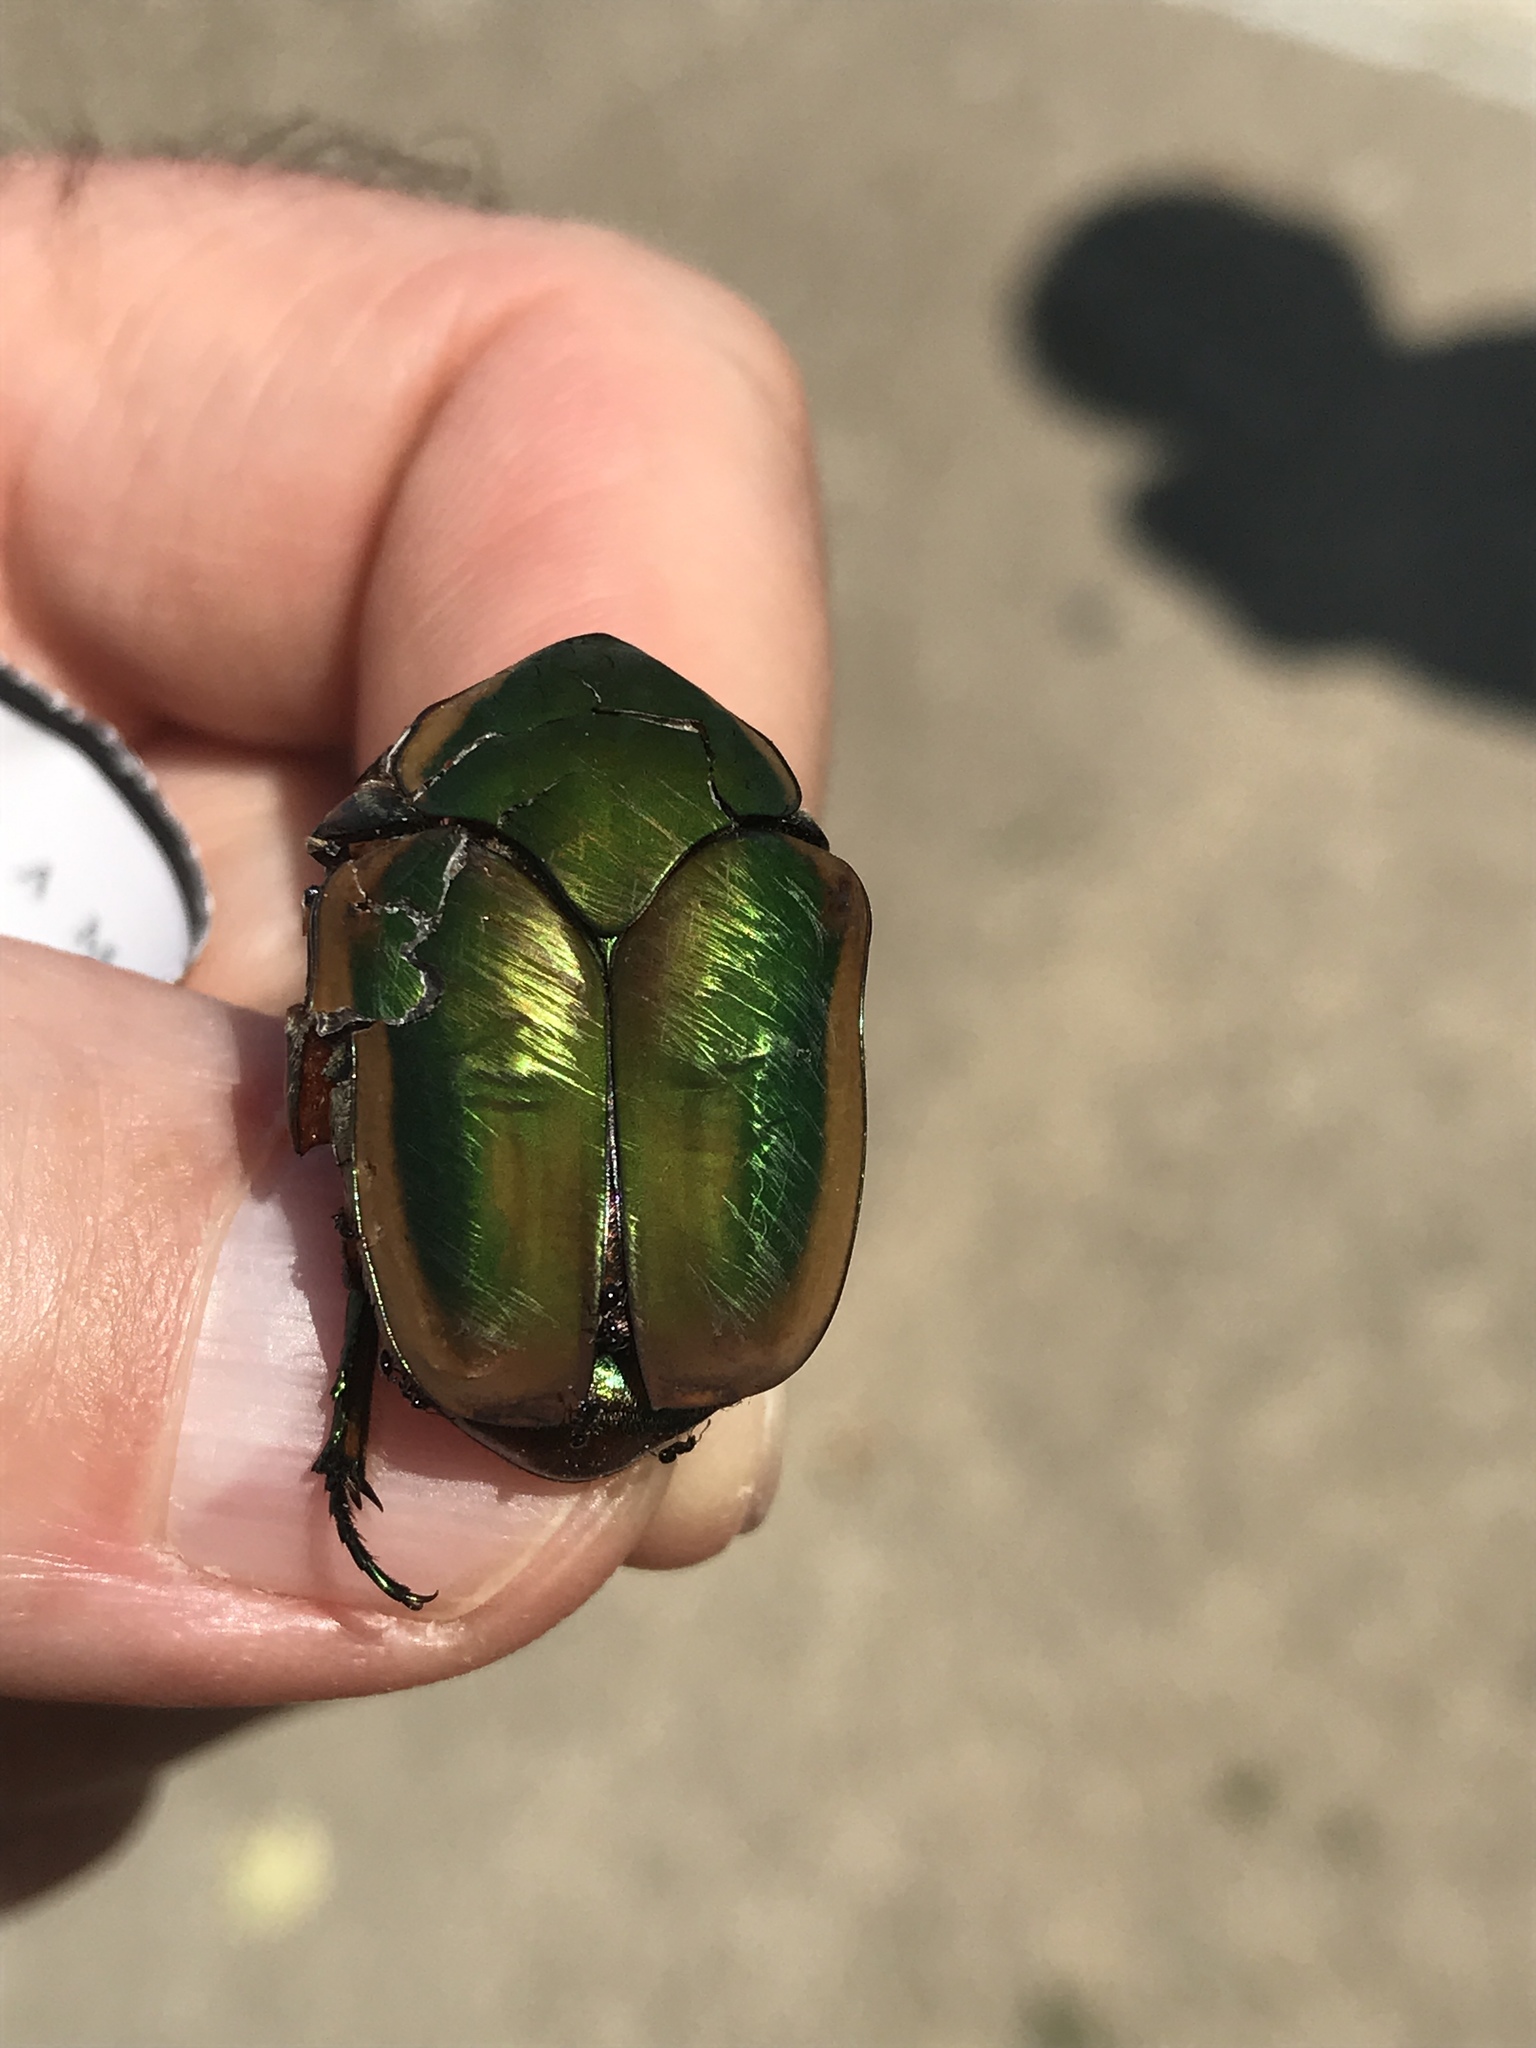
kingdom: Animalia
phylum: Arthropoda
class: Insecta
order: Coleoptera
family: Scarabaeidae
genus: Cotinis
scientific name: Cotinis nitida
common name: Common green june beetle
